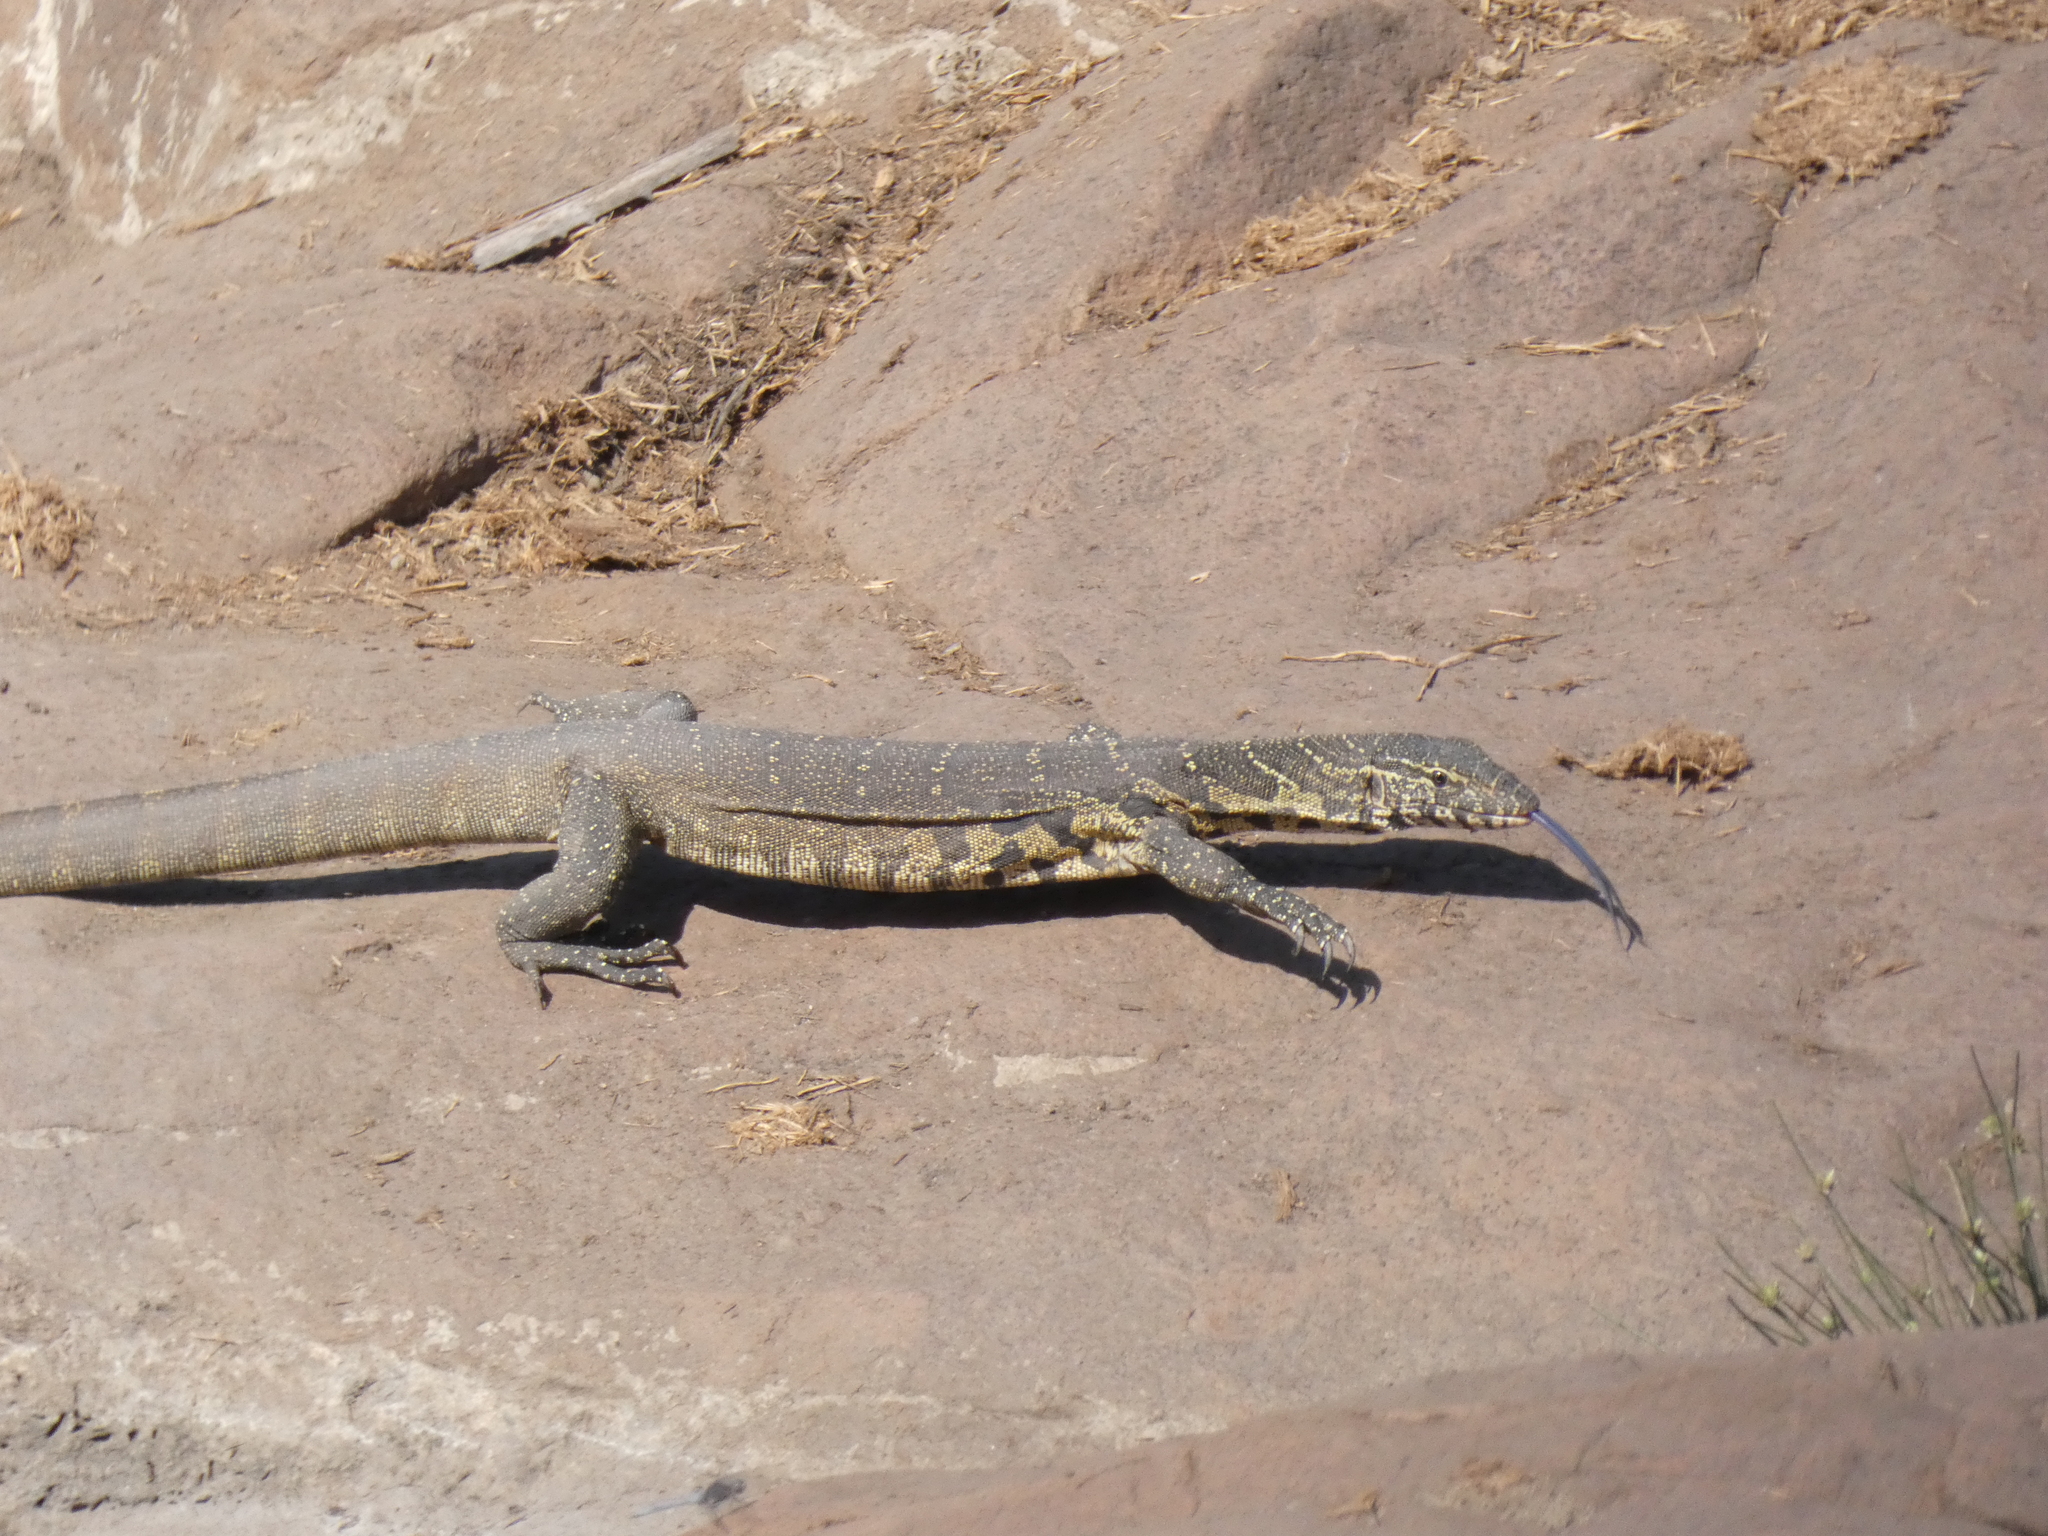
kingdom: Animalia
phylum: Chordata
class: Squamata
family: Varanidae
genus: Varanus
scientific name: Varanus niloticus
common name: Nile monitor
